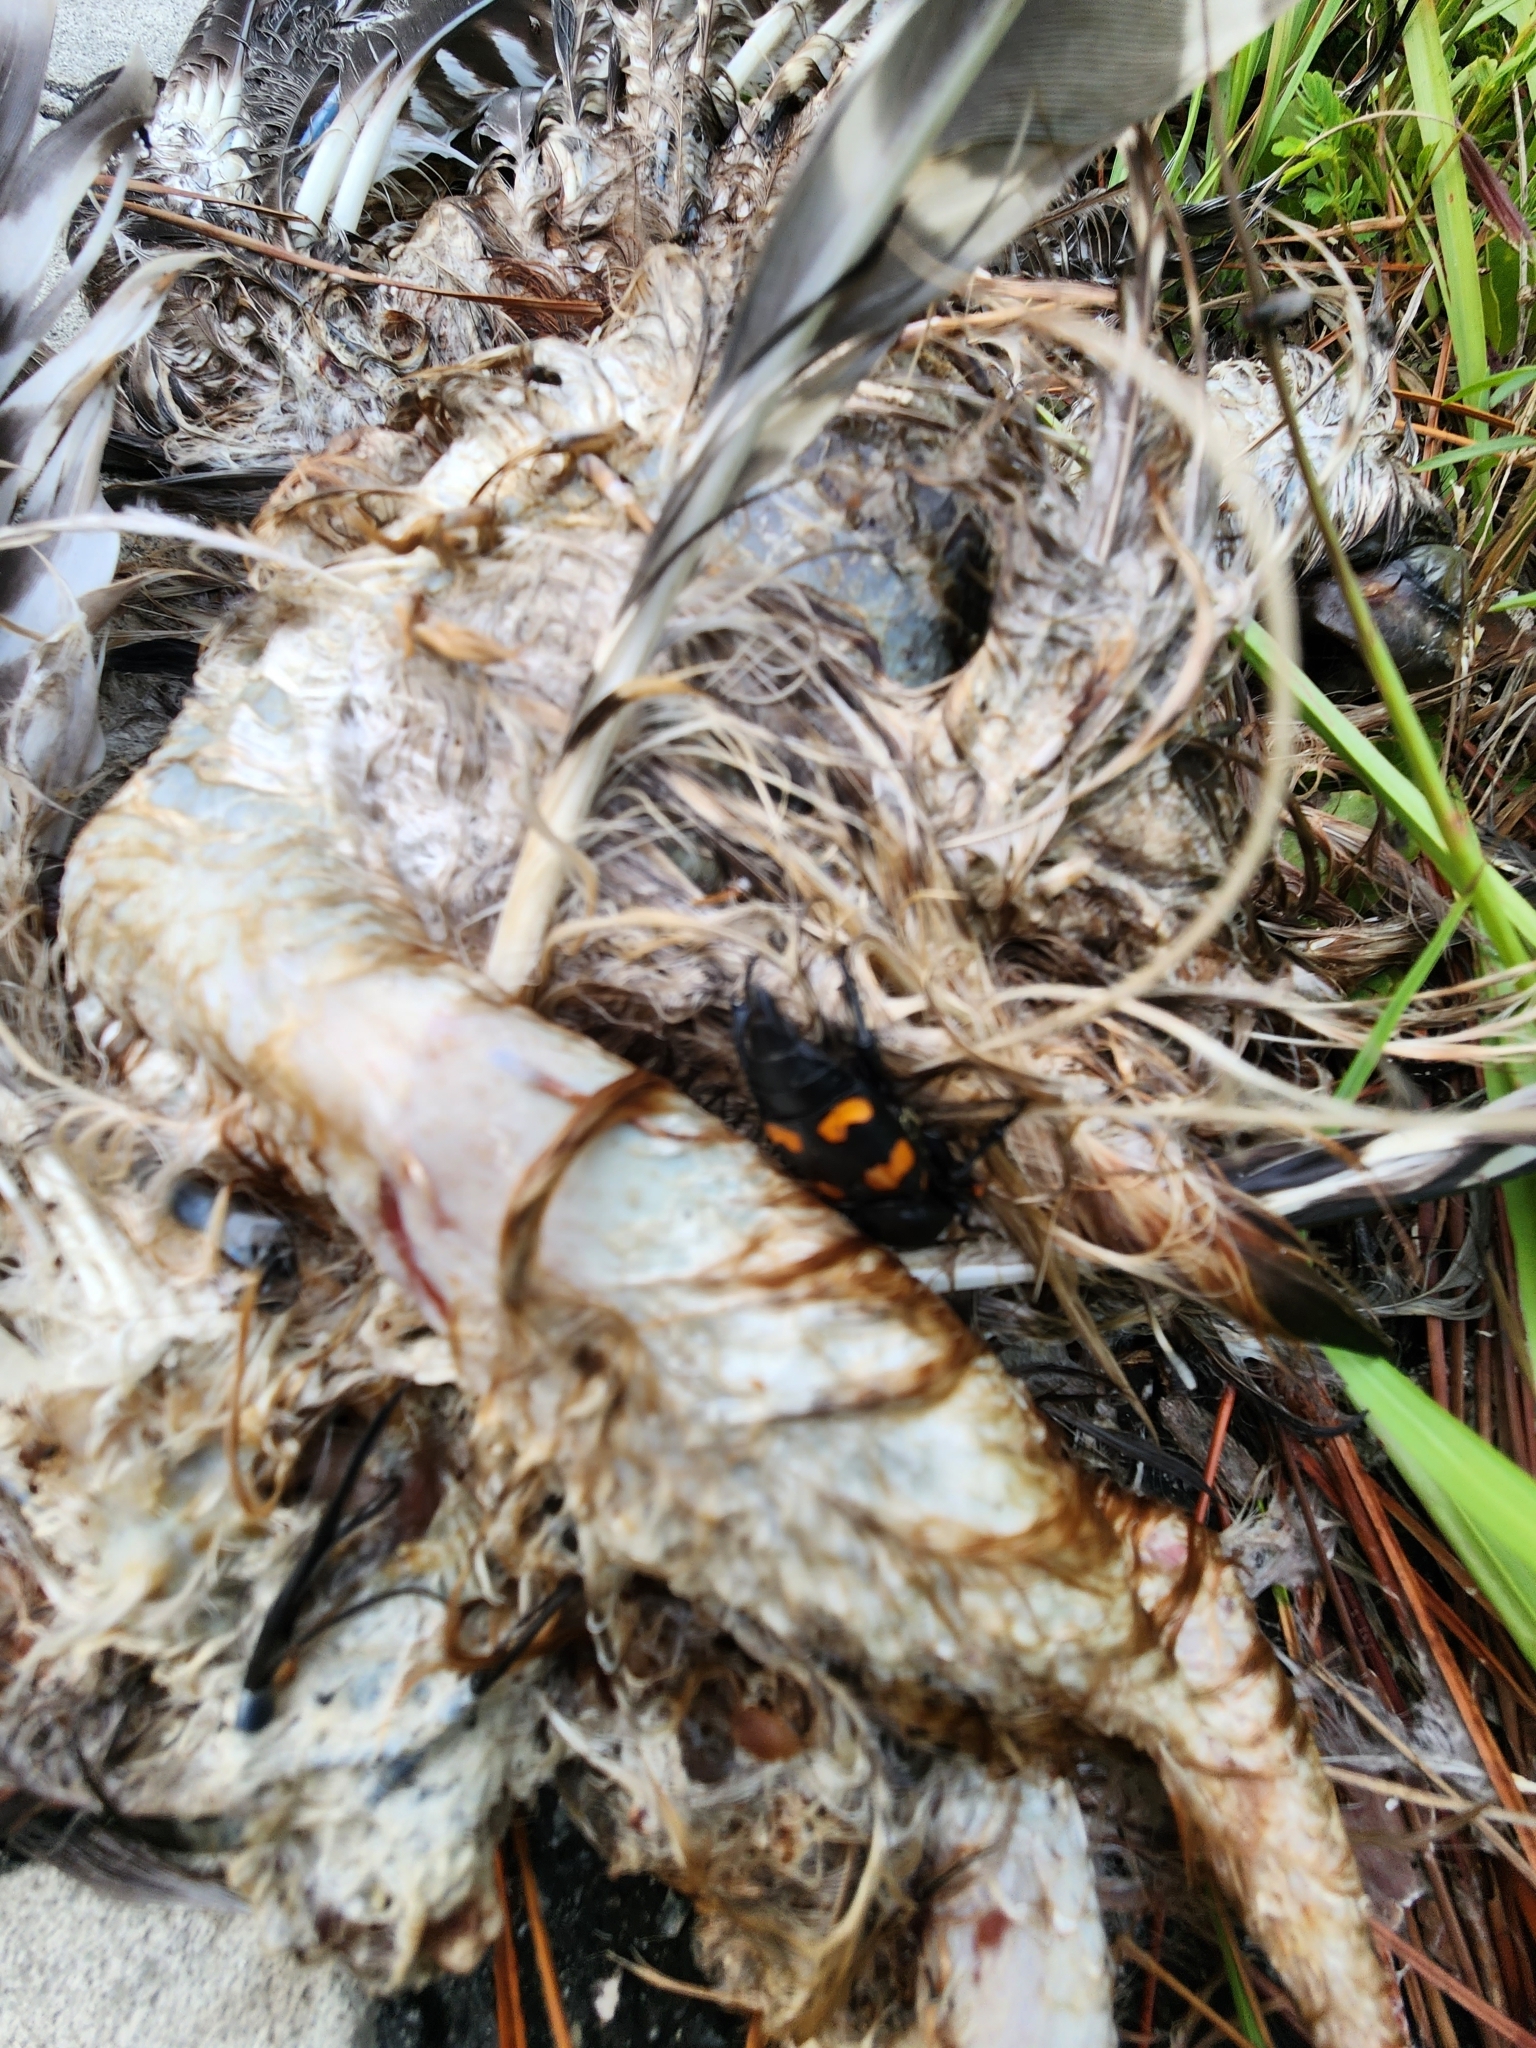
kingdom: Animalia
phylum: Chordata
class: Aves
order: Accipitriformes
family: Accipitridae
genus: Buteo
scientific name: Buteo lineatus
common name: Red-shouldered hawk
